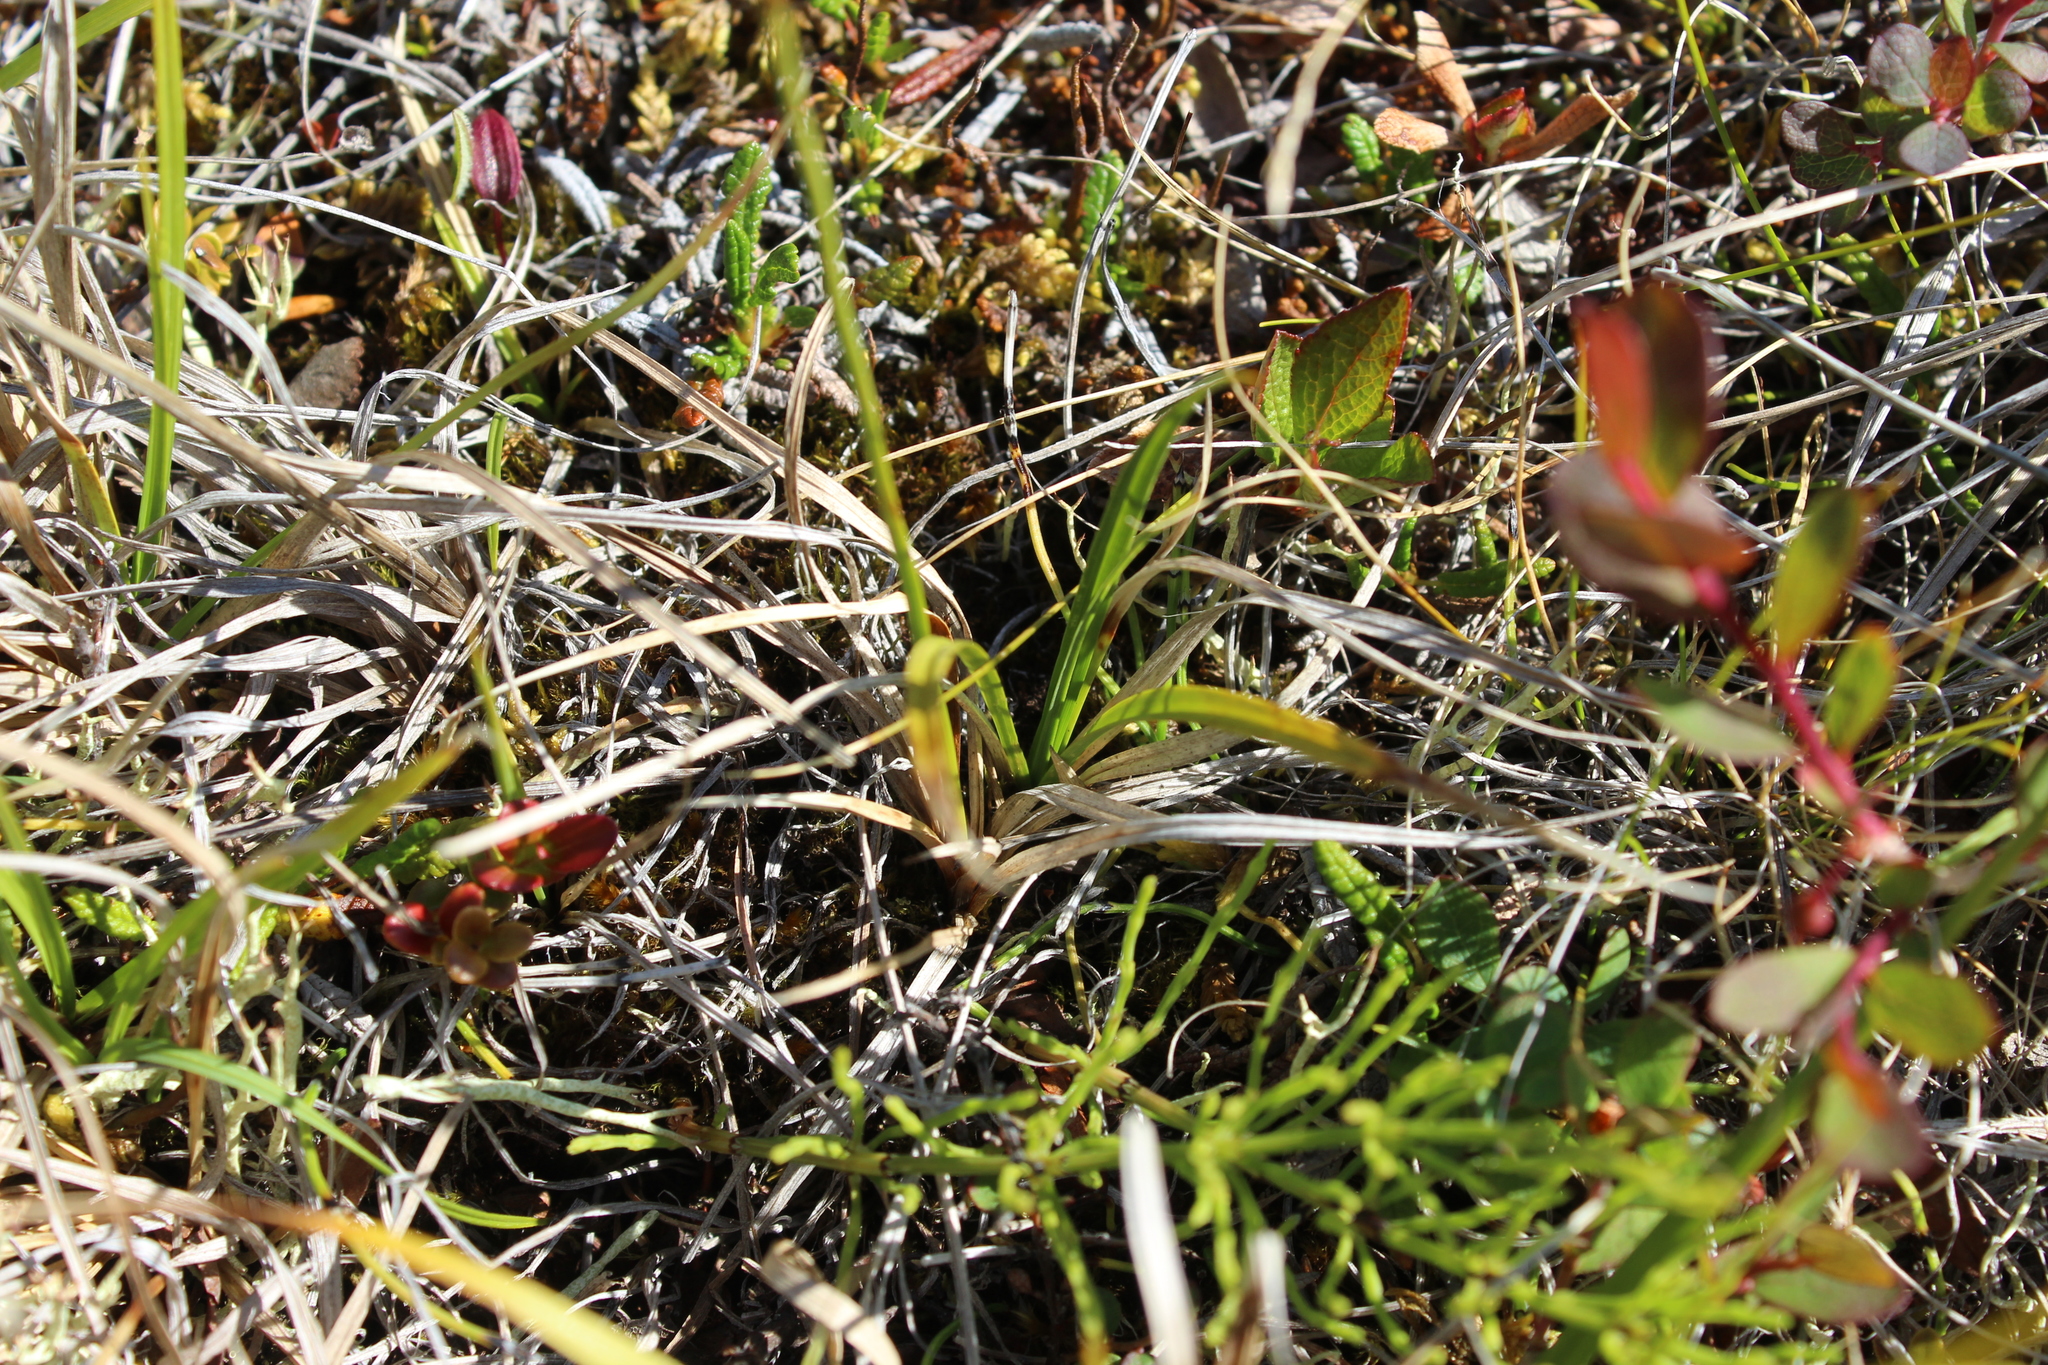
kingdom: Plantae
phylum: Tracheophyta
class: Liliopsida
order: Poales
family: Cyperaceae
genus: Carex
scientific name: Carex bigelowii
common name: Stiff sedge
